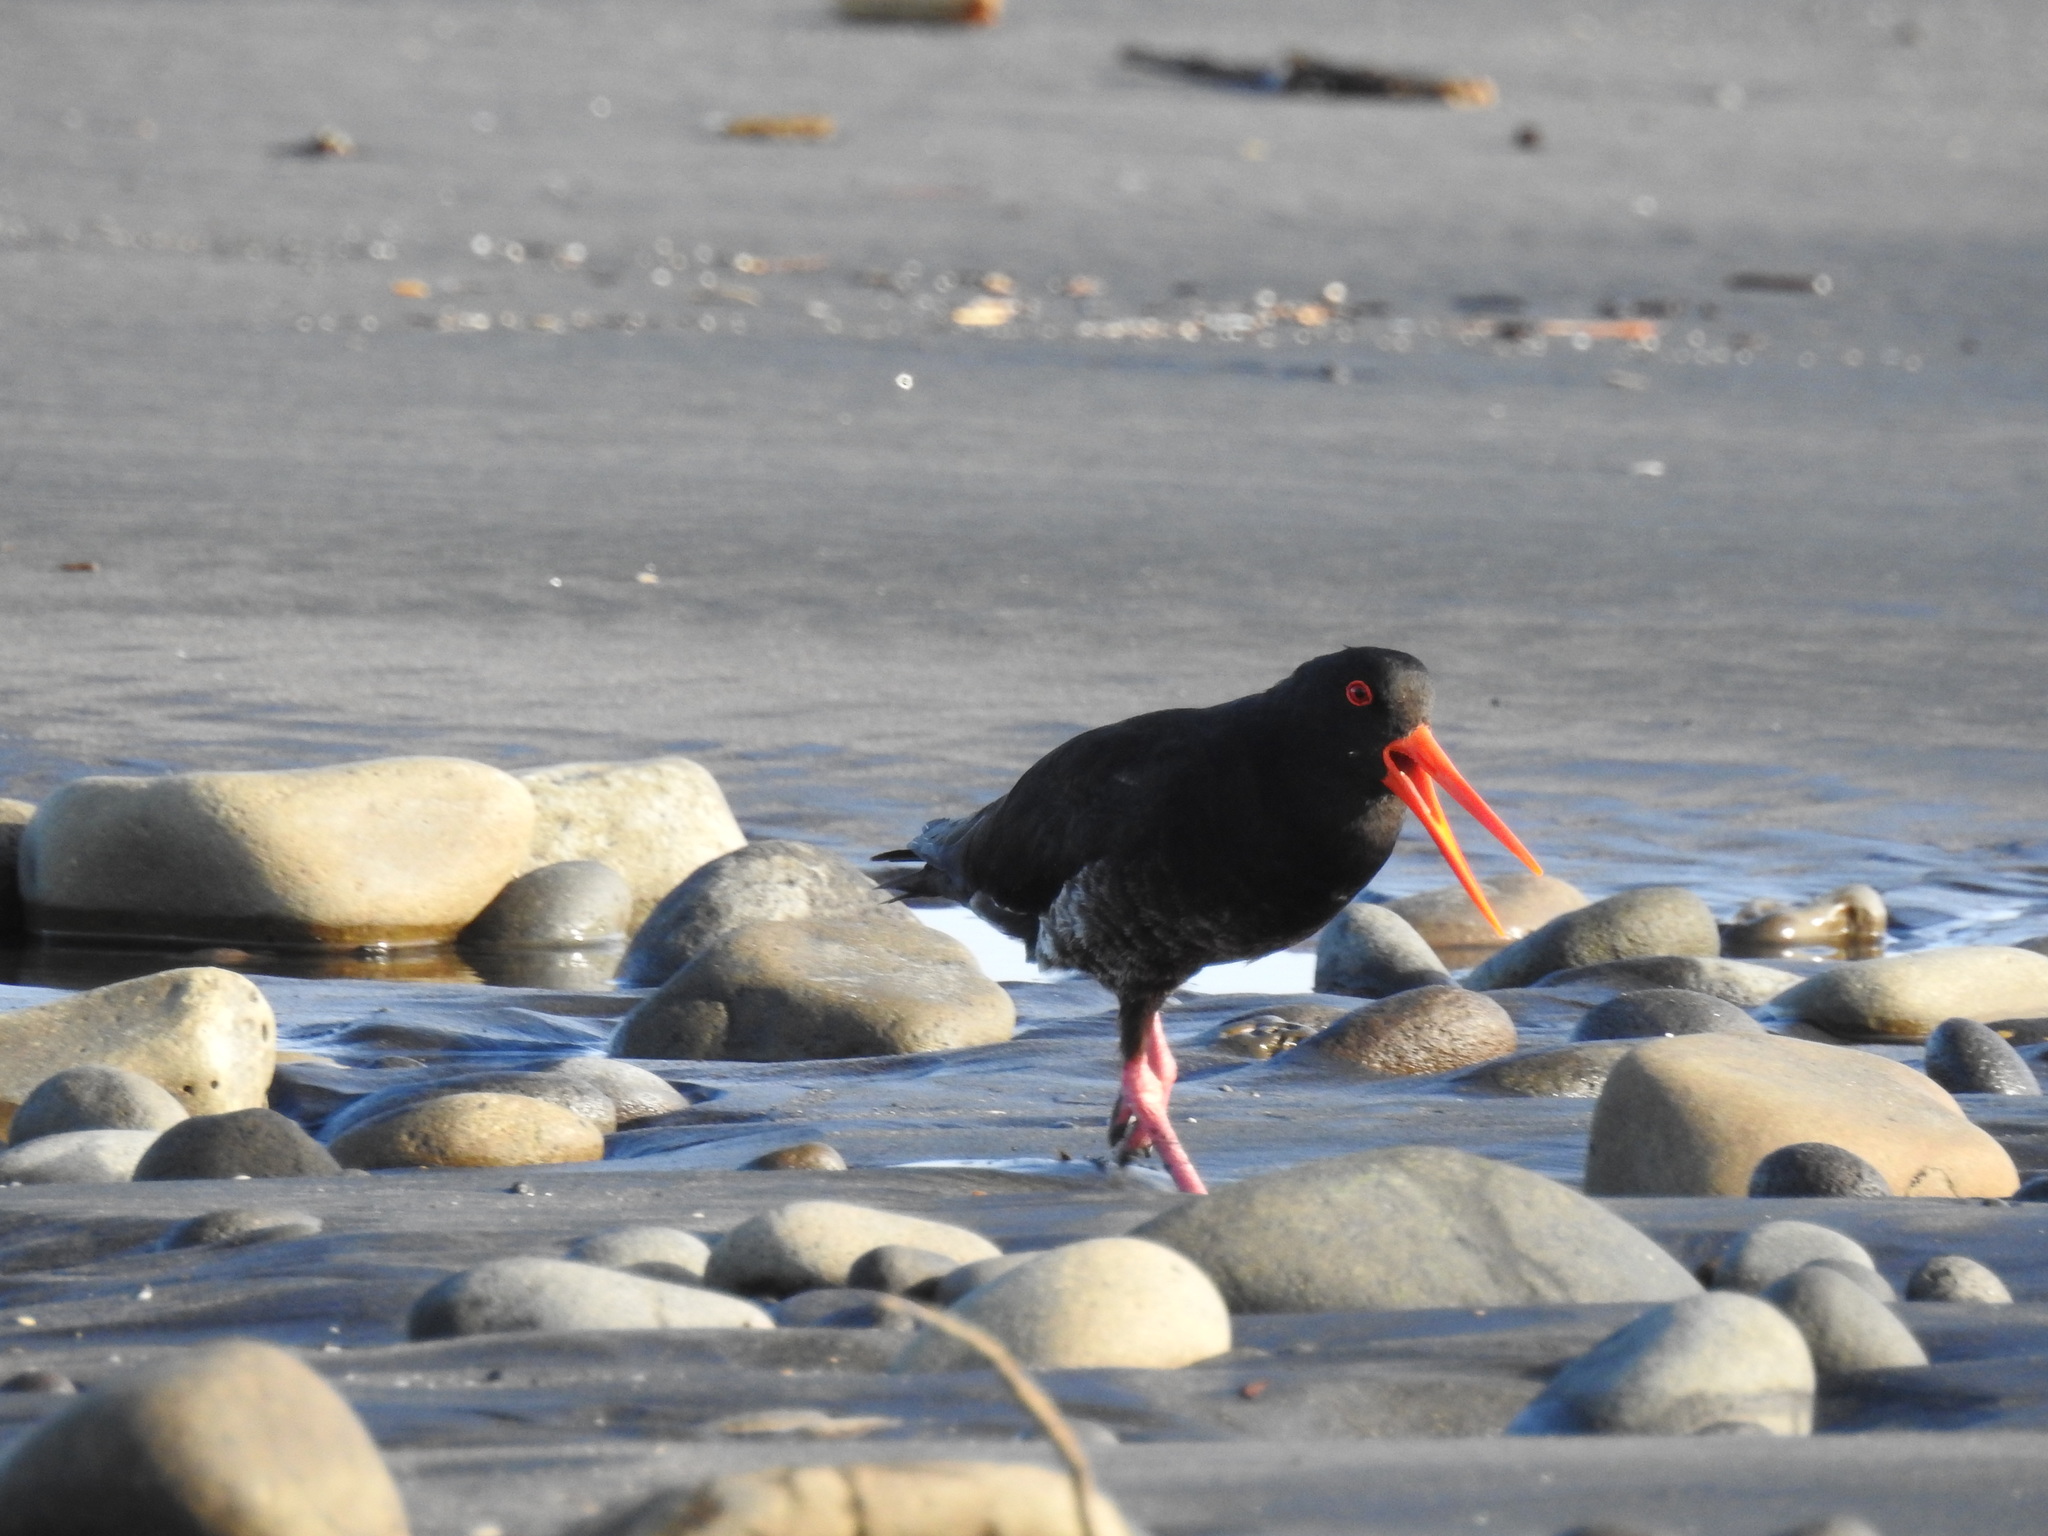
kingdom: Animalia
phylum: Chordata
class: Aves
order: Charadriiformes
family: Haematopodidae
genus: Haematopus
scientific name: Haematopus unicolor
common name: Variable oystercatcher
